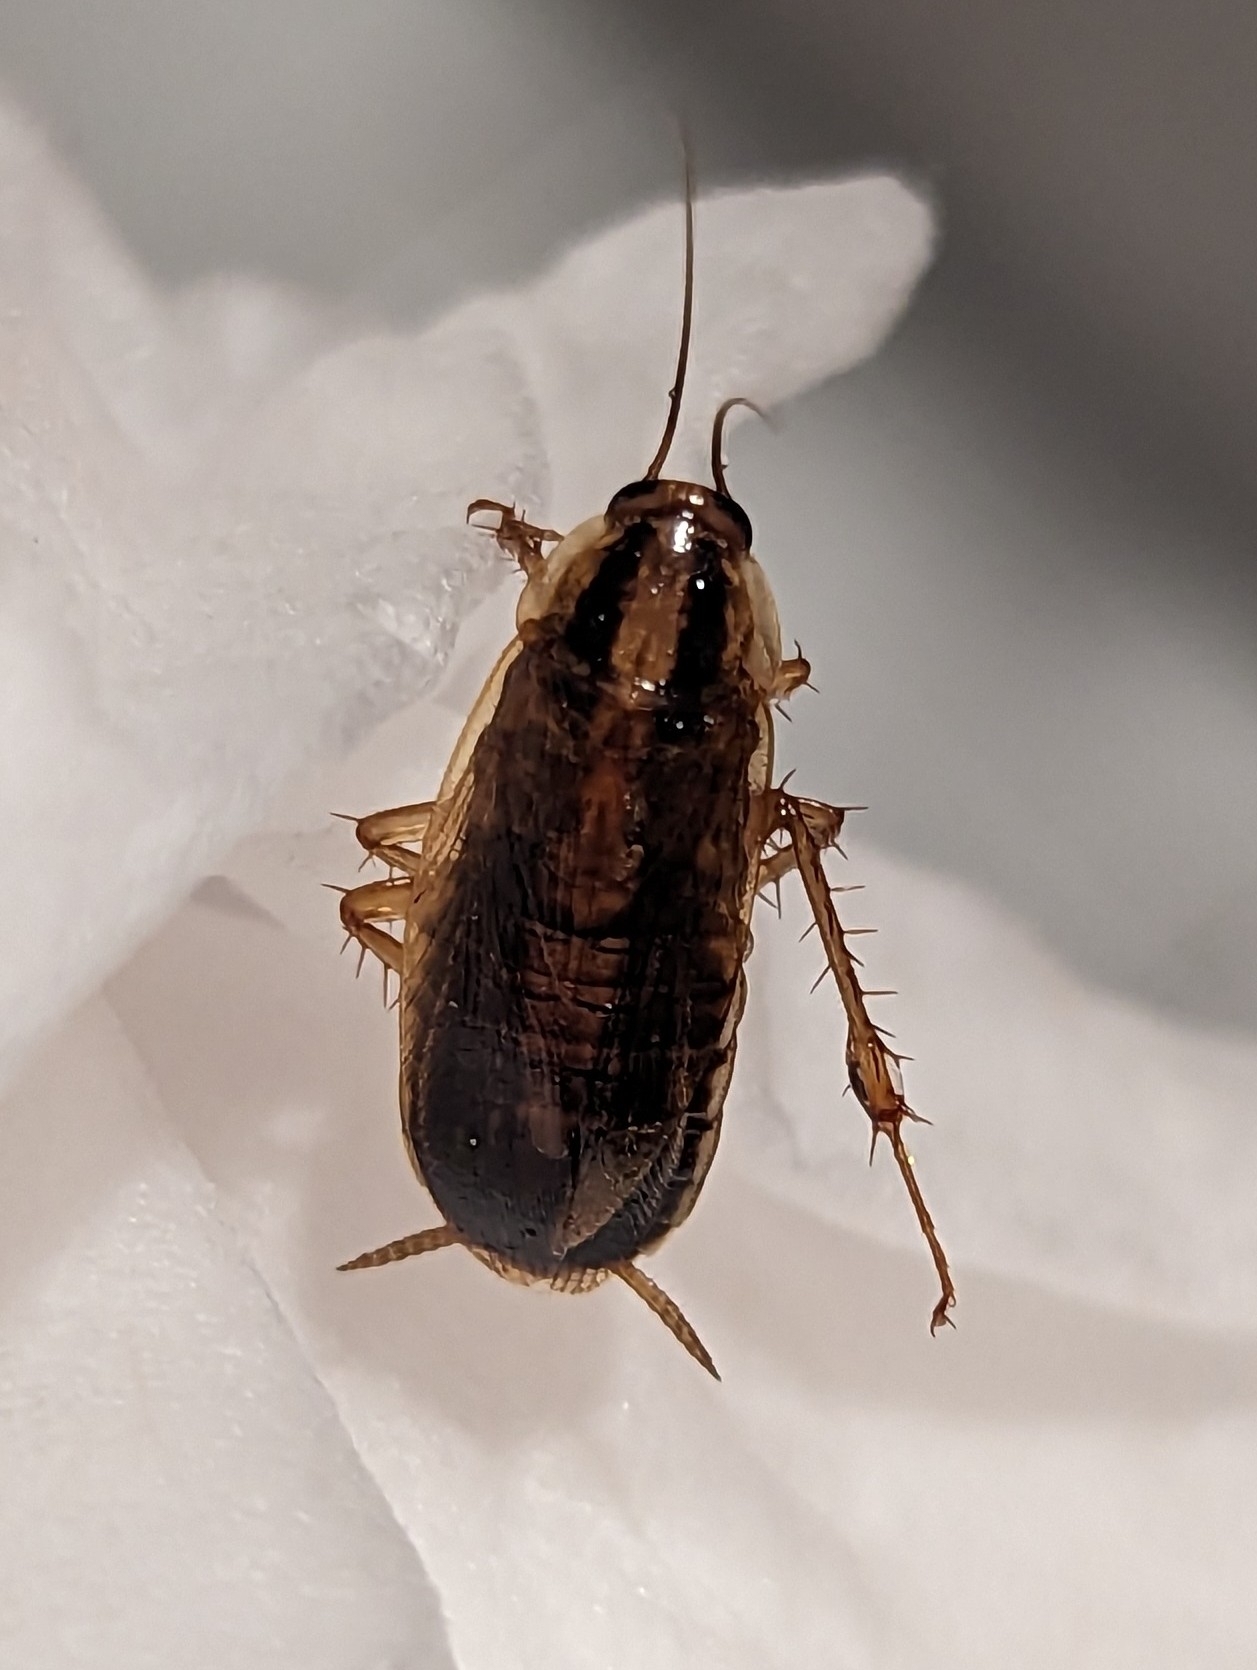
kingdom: Animalia
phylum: Arthropoda
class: Insecta
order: Blattodea
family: Ectobiidae
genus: Blattella
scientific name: Blattella germanica
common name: German cockroach
